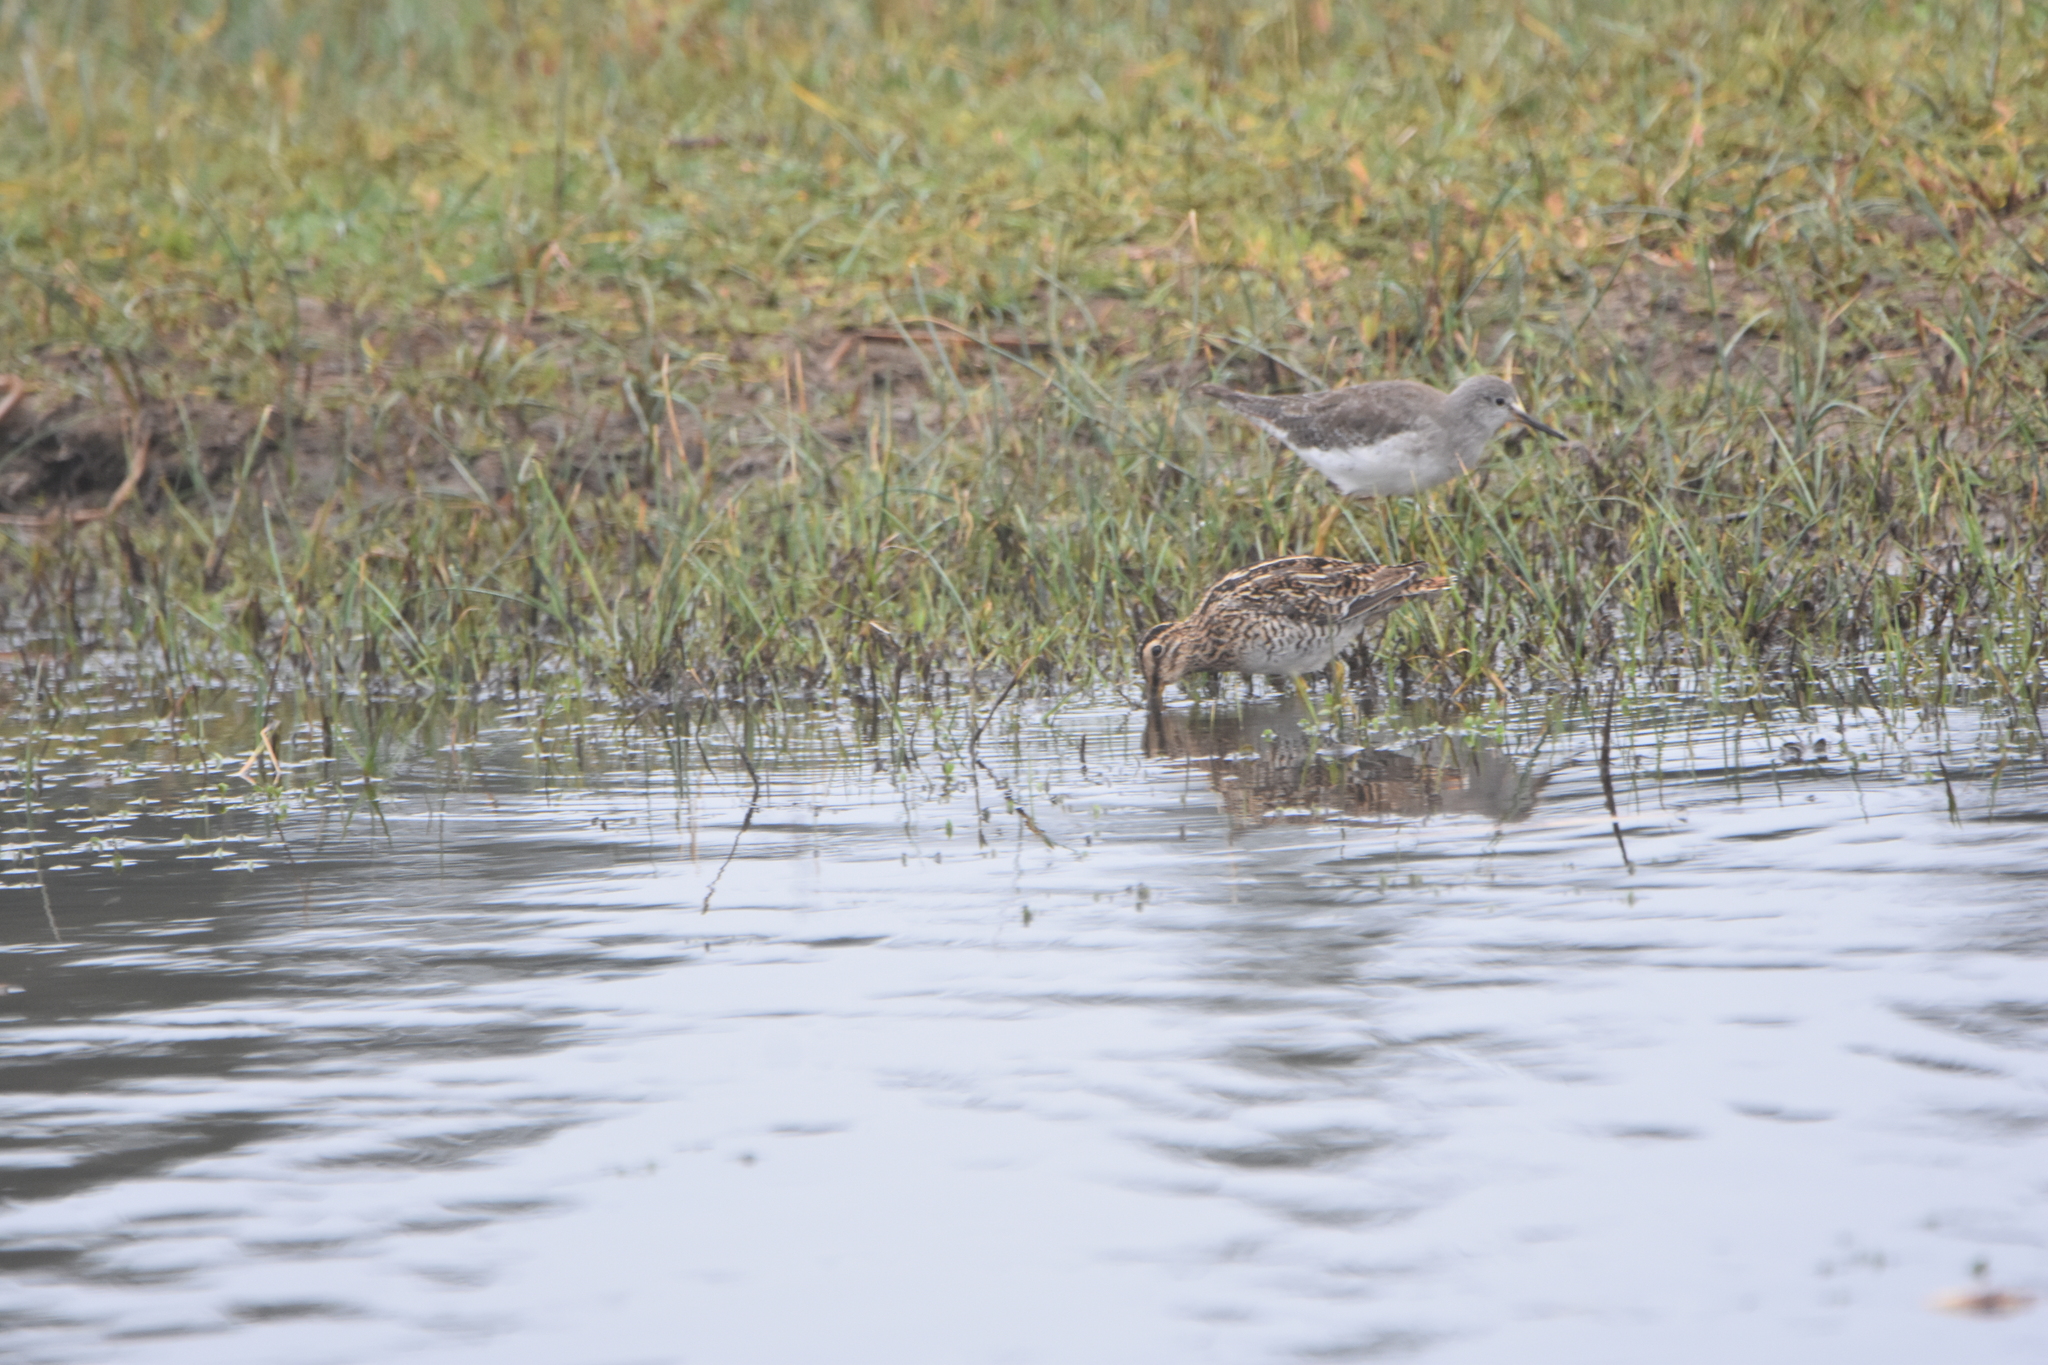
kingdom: Animalia
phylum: Chordata
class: Aves
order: Charadriiformes
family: Scolopacidae
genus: Tringa
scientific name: Tringa flavipes
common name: Lesser yellowlegs
